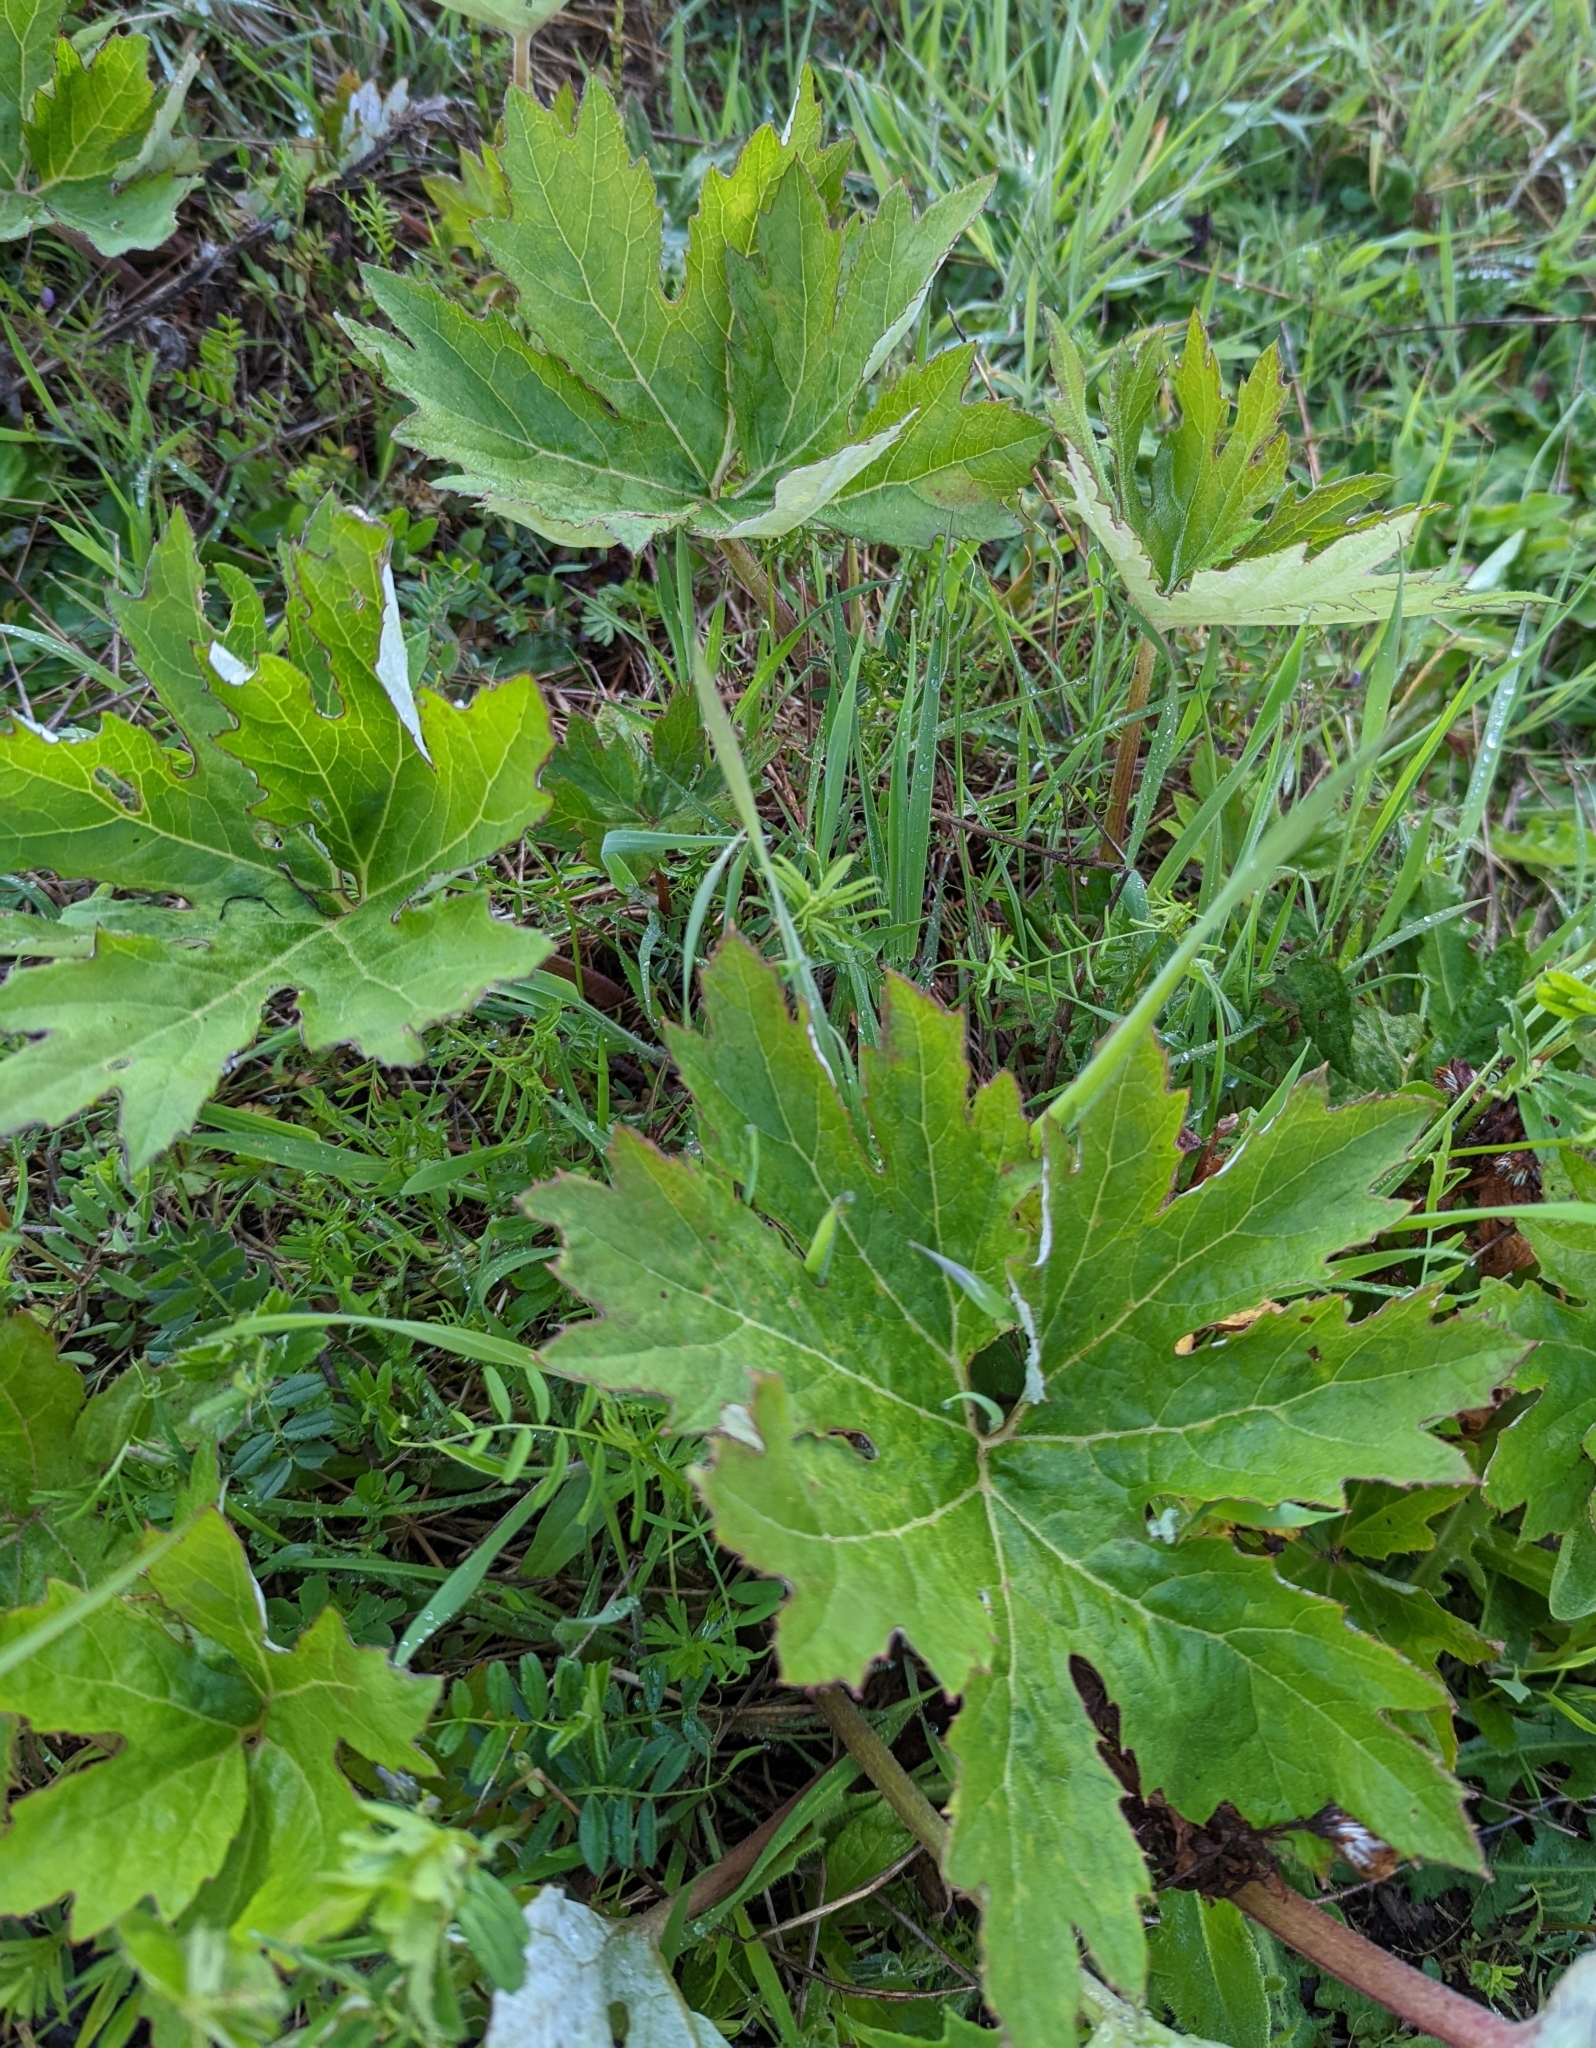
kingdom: Plantae
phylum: Tracheophyta
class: Magnoliopsida
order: Asterales
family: Asteraceae
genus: Petasites
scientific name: Petasites frigidus
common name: Arctic butterbur
